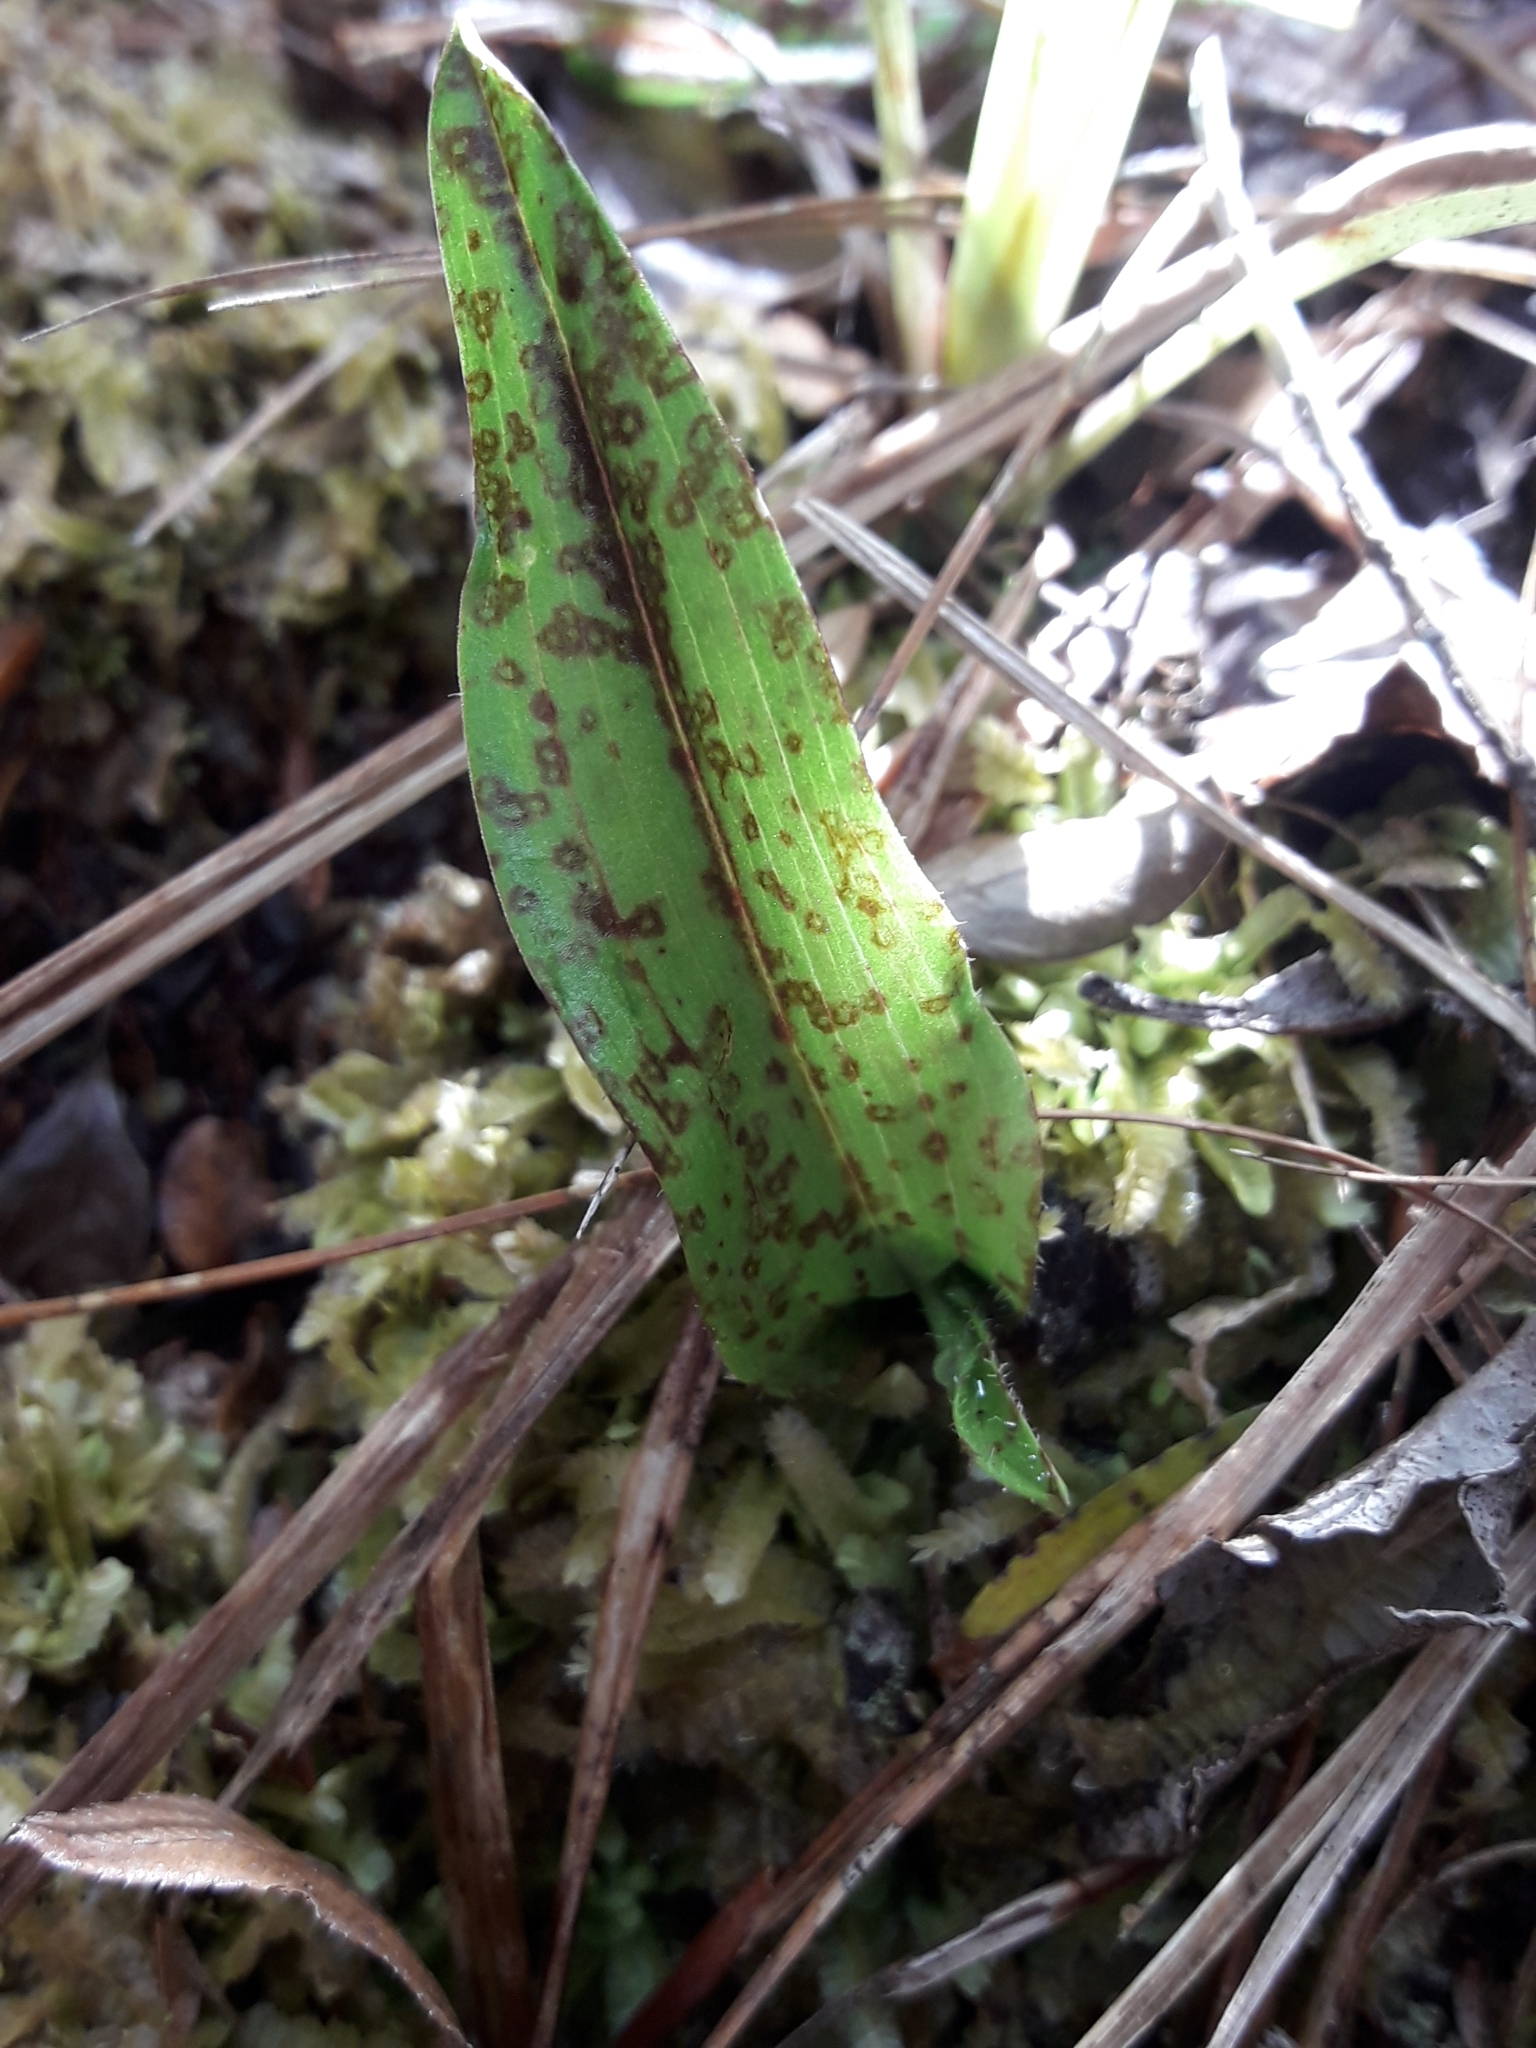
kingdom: Plantae
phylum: Tracheophyta
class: Liliopsida
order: Asparagales
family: Orchidaceae
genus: Aporostylis
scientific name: Aporostylis bifolia
